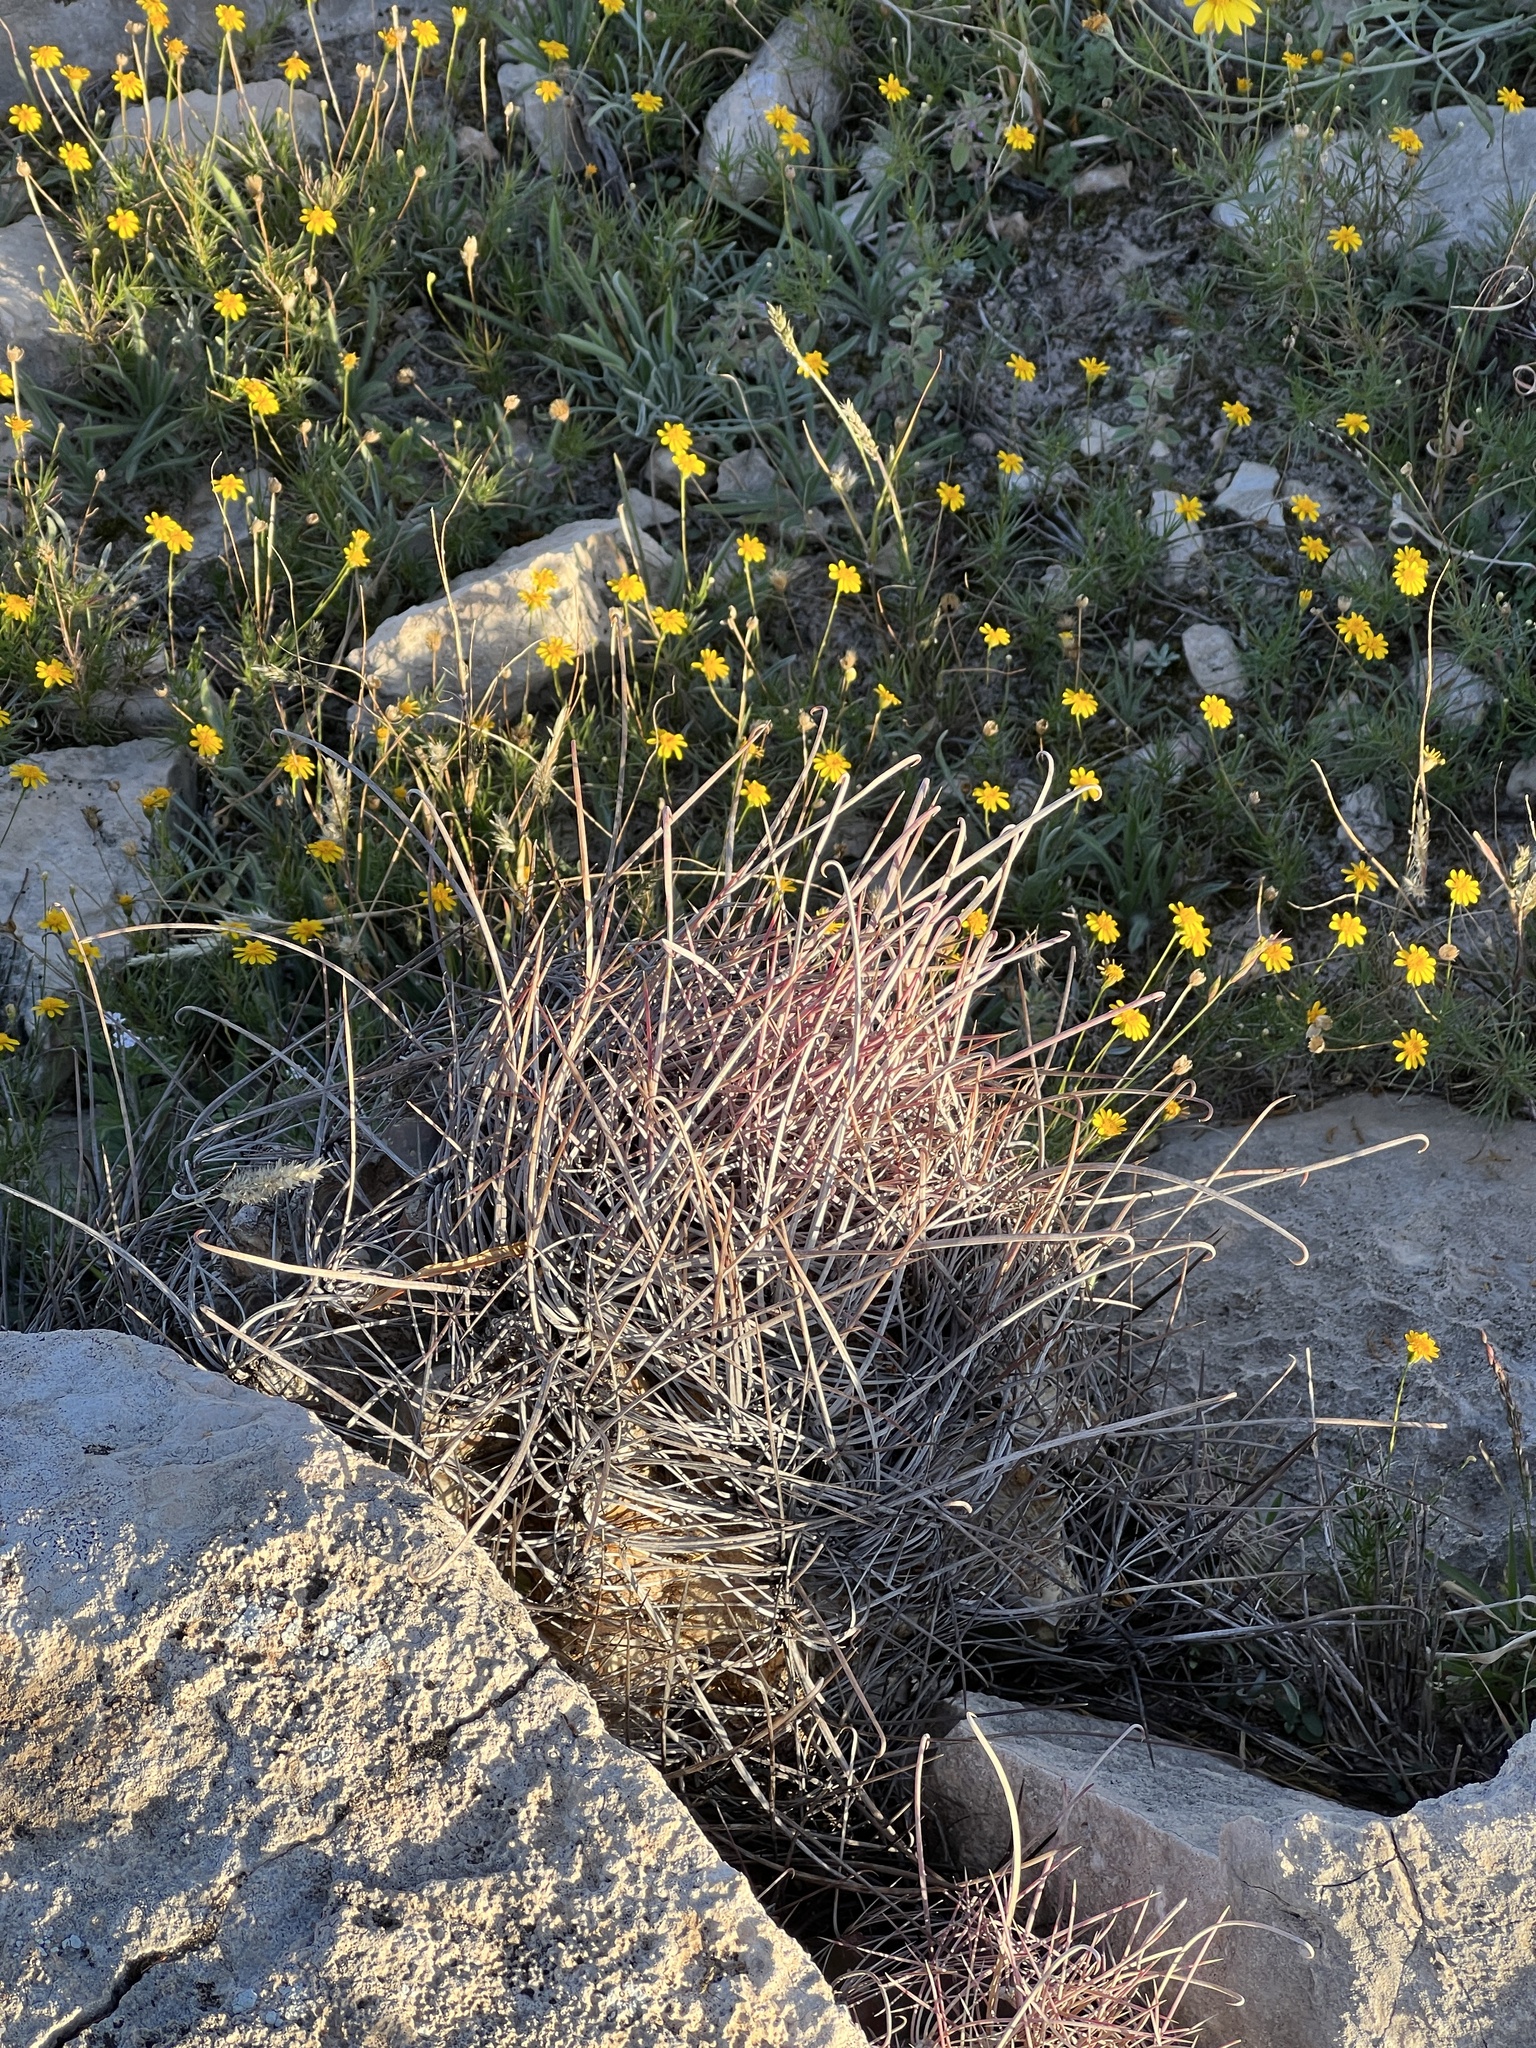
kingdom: Plantae
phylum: Tracheophyta
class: Magnoliopsida
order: Caryophyllales
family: Cactaceae
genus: Bisnaga
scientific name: Bisnaga hamatacantha
